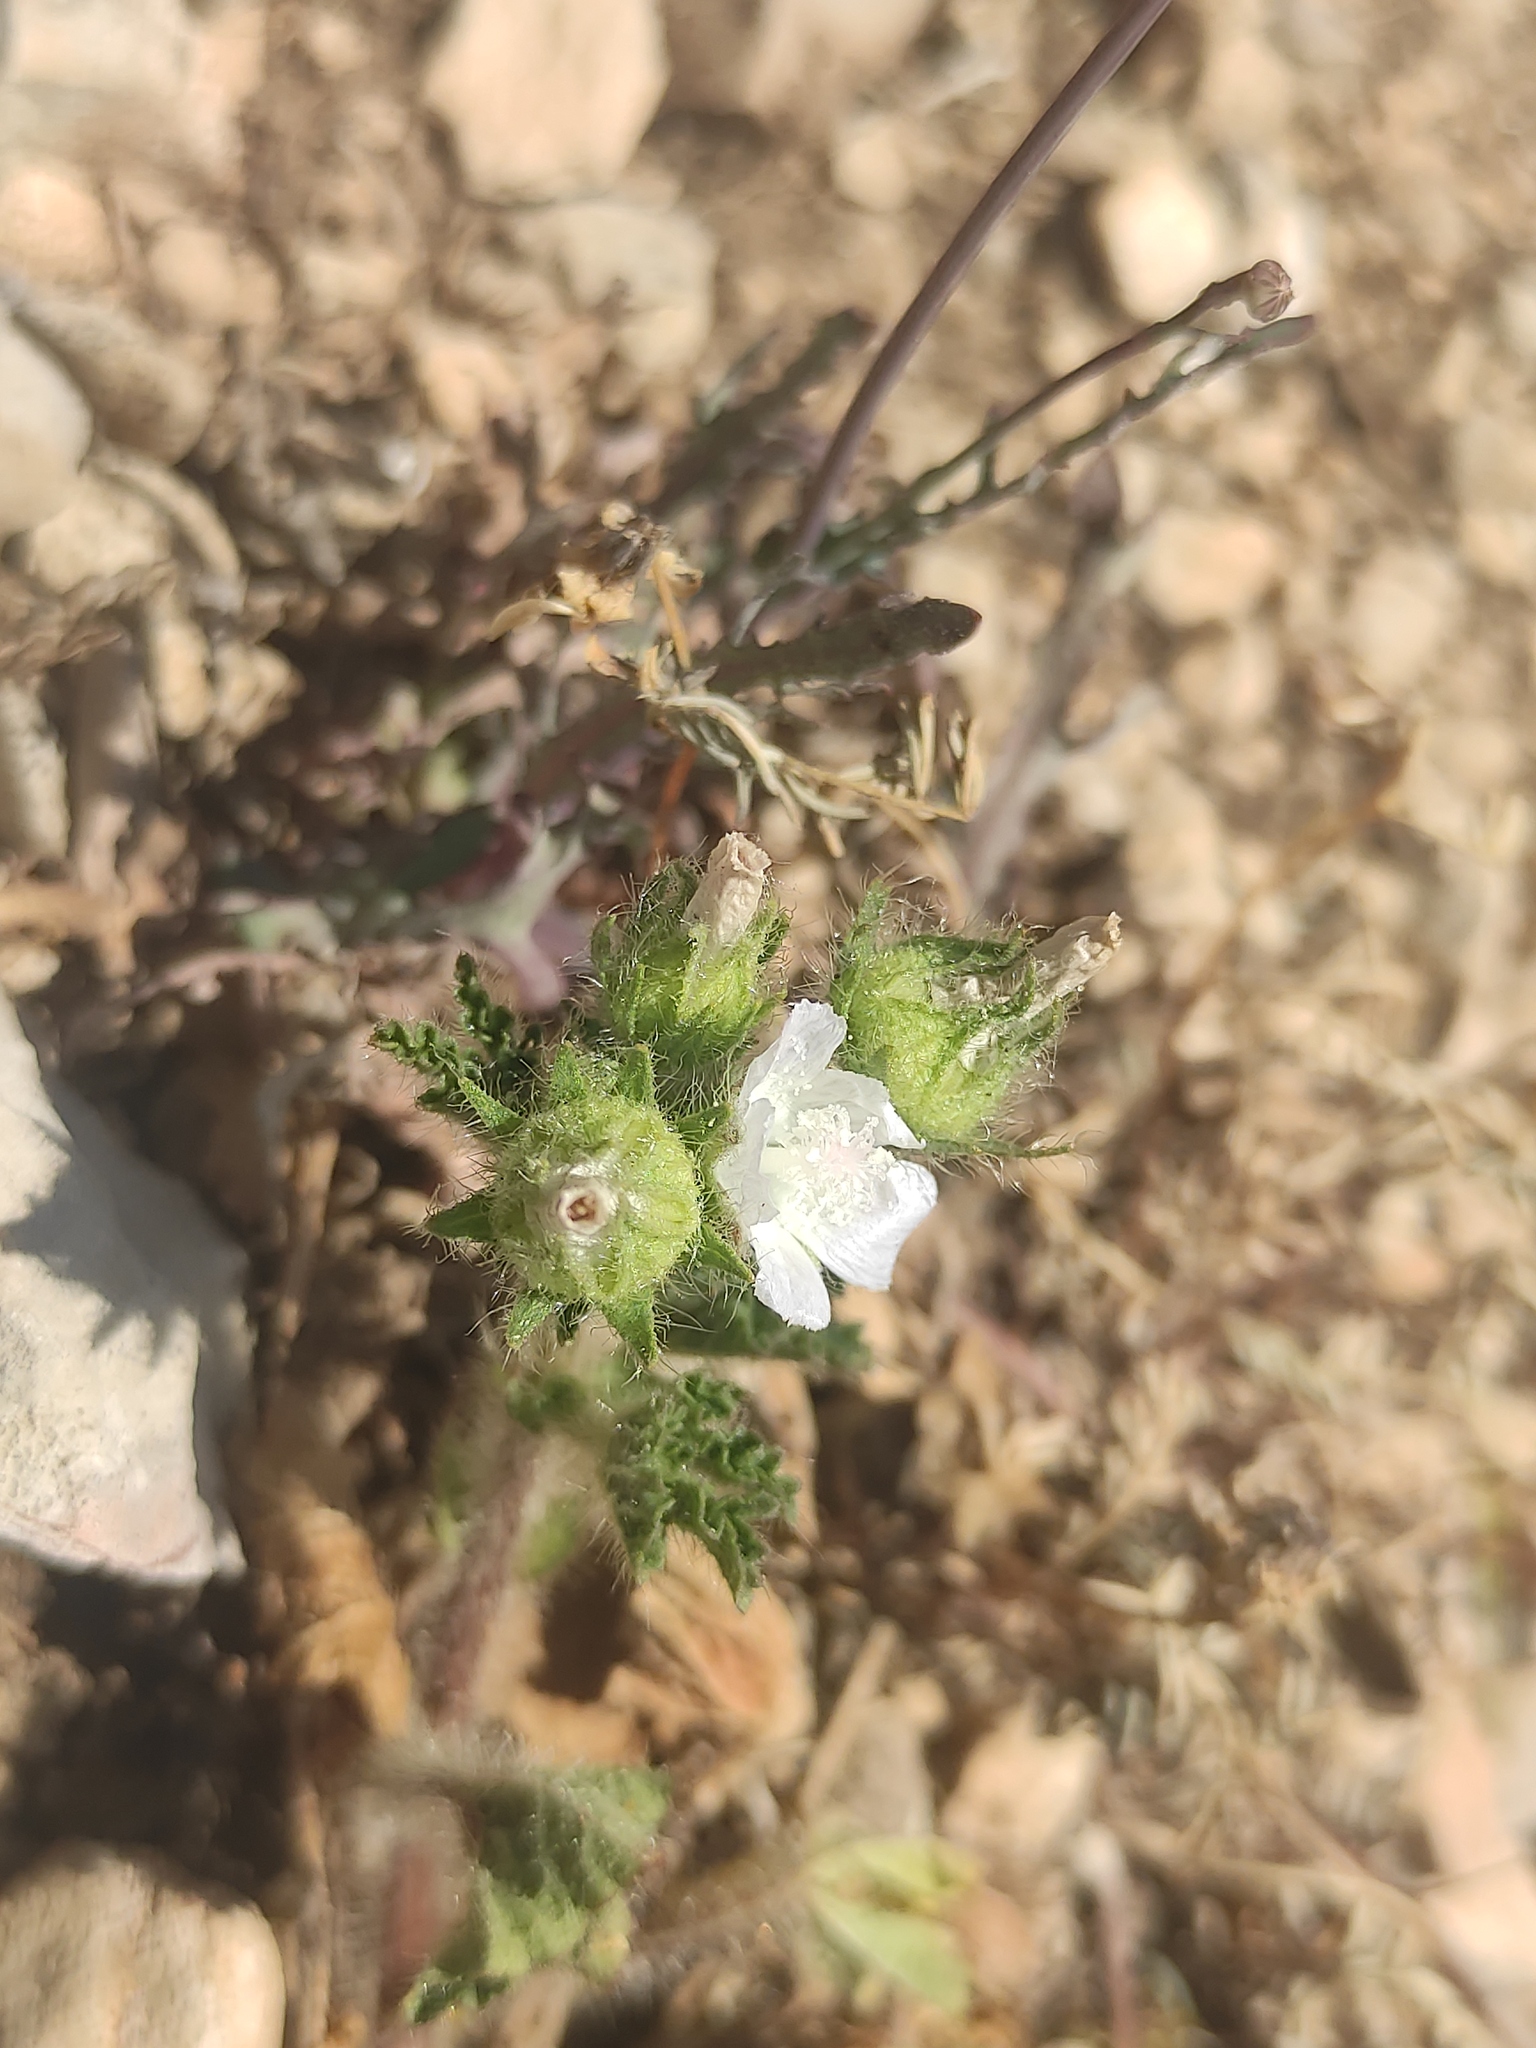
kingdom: Plantae
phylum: Tracheophyta
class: Magnoliopsida
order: Malvales
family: Malvaceae
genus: Althaea
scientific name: Althaea hirsuta
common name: Rough marsh-mallow
